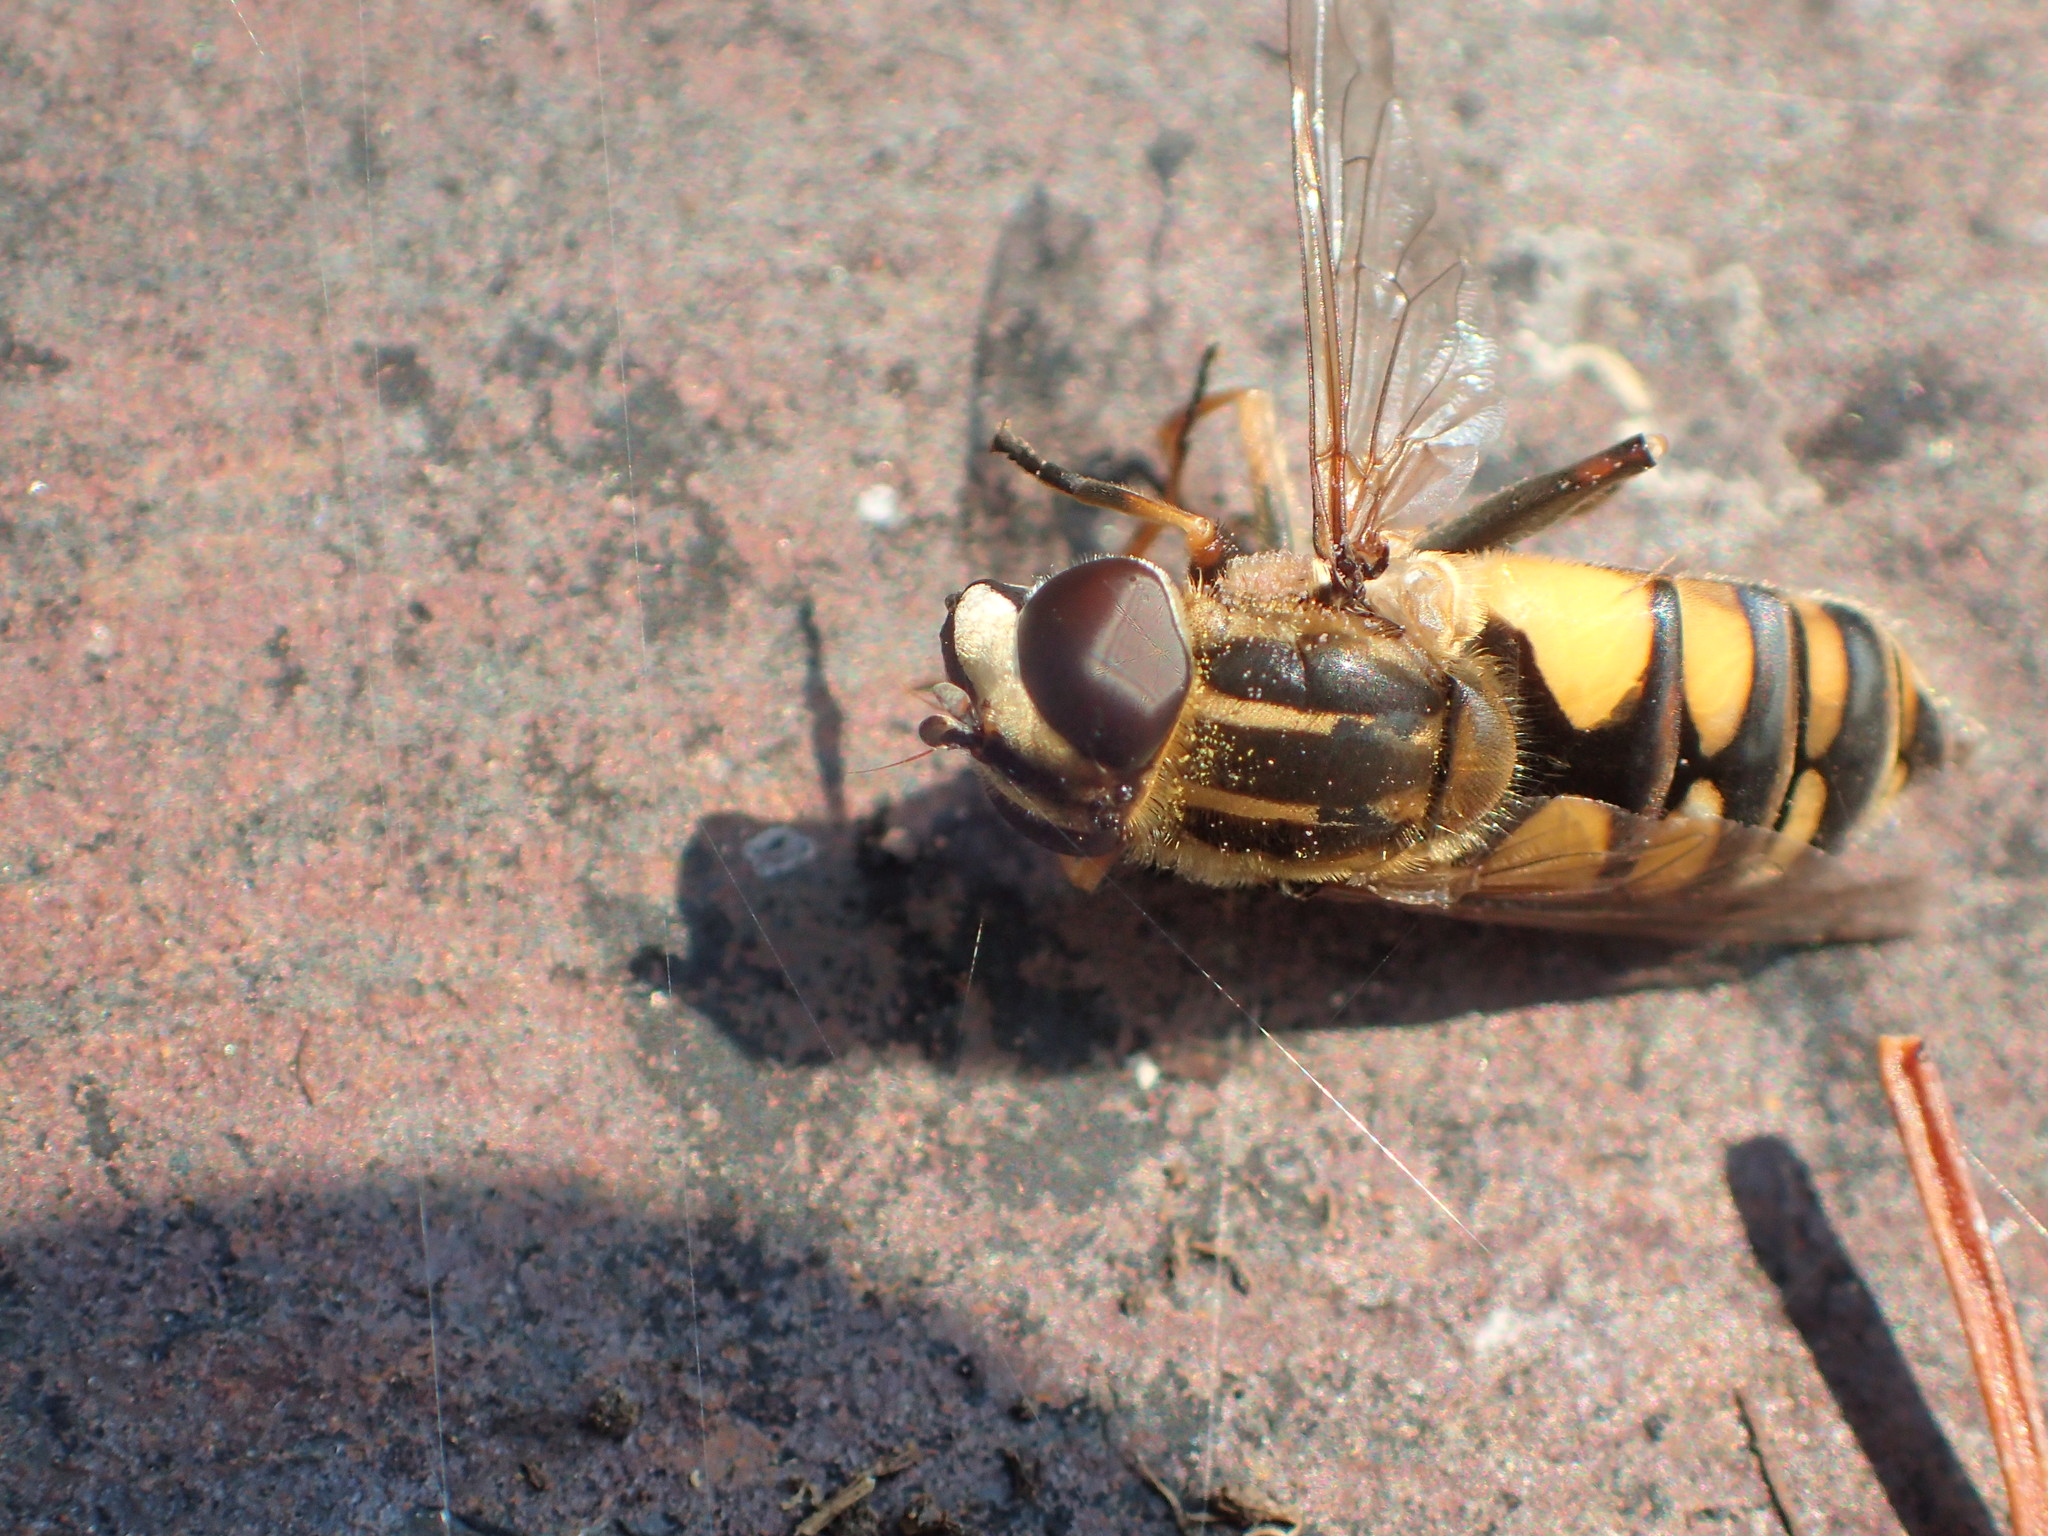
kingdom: Animalia
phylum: Arthropoda
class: Insecta
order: Diptera
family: Syrphidae
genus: Helophilus
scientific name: Helophilus hybridus
